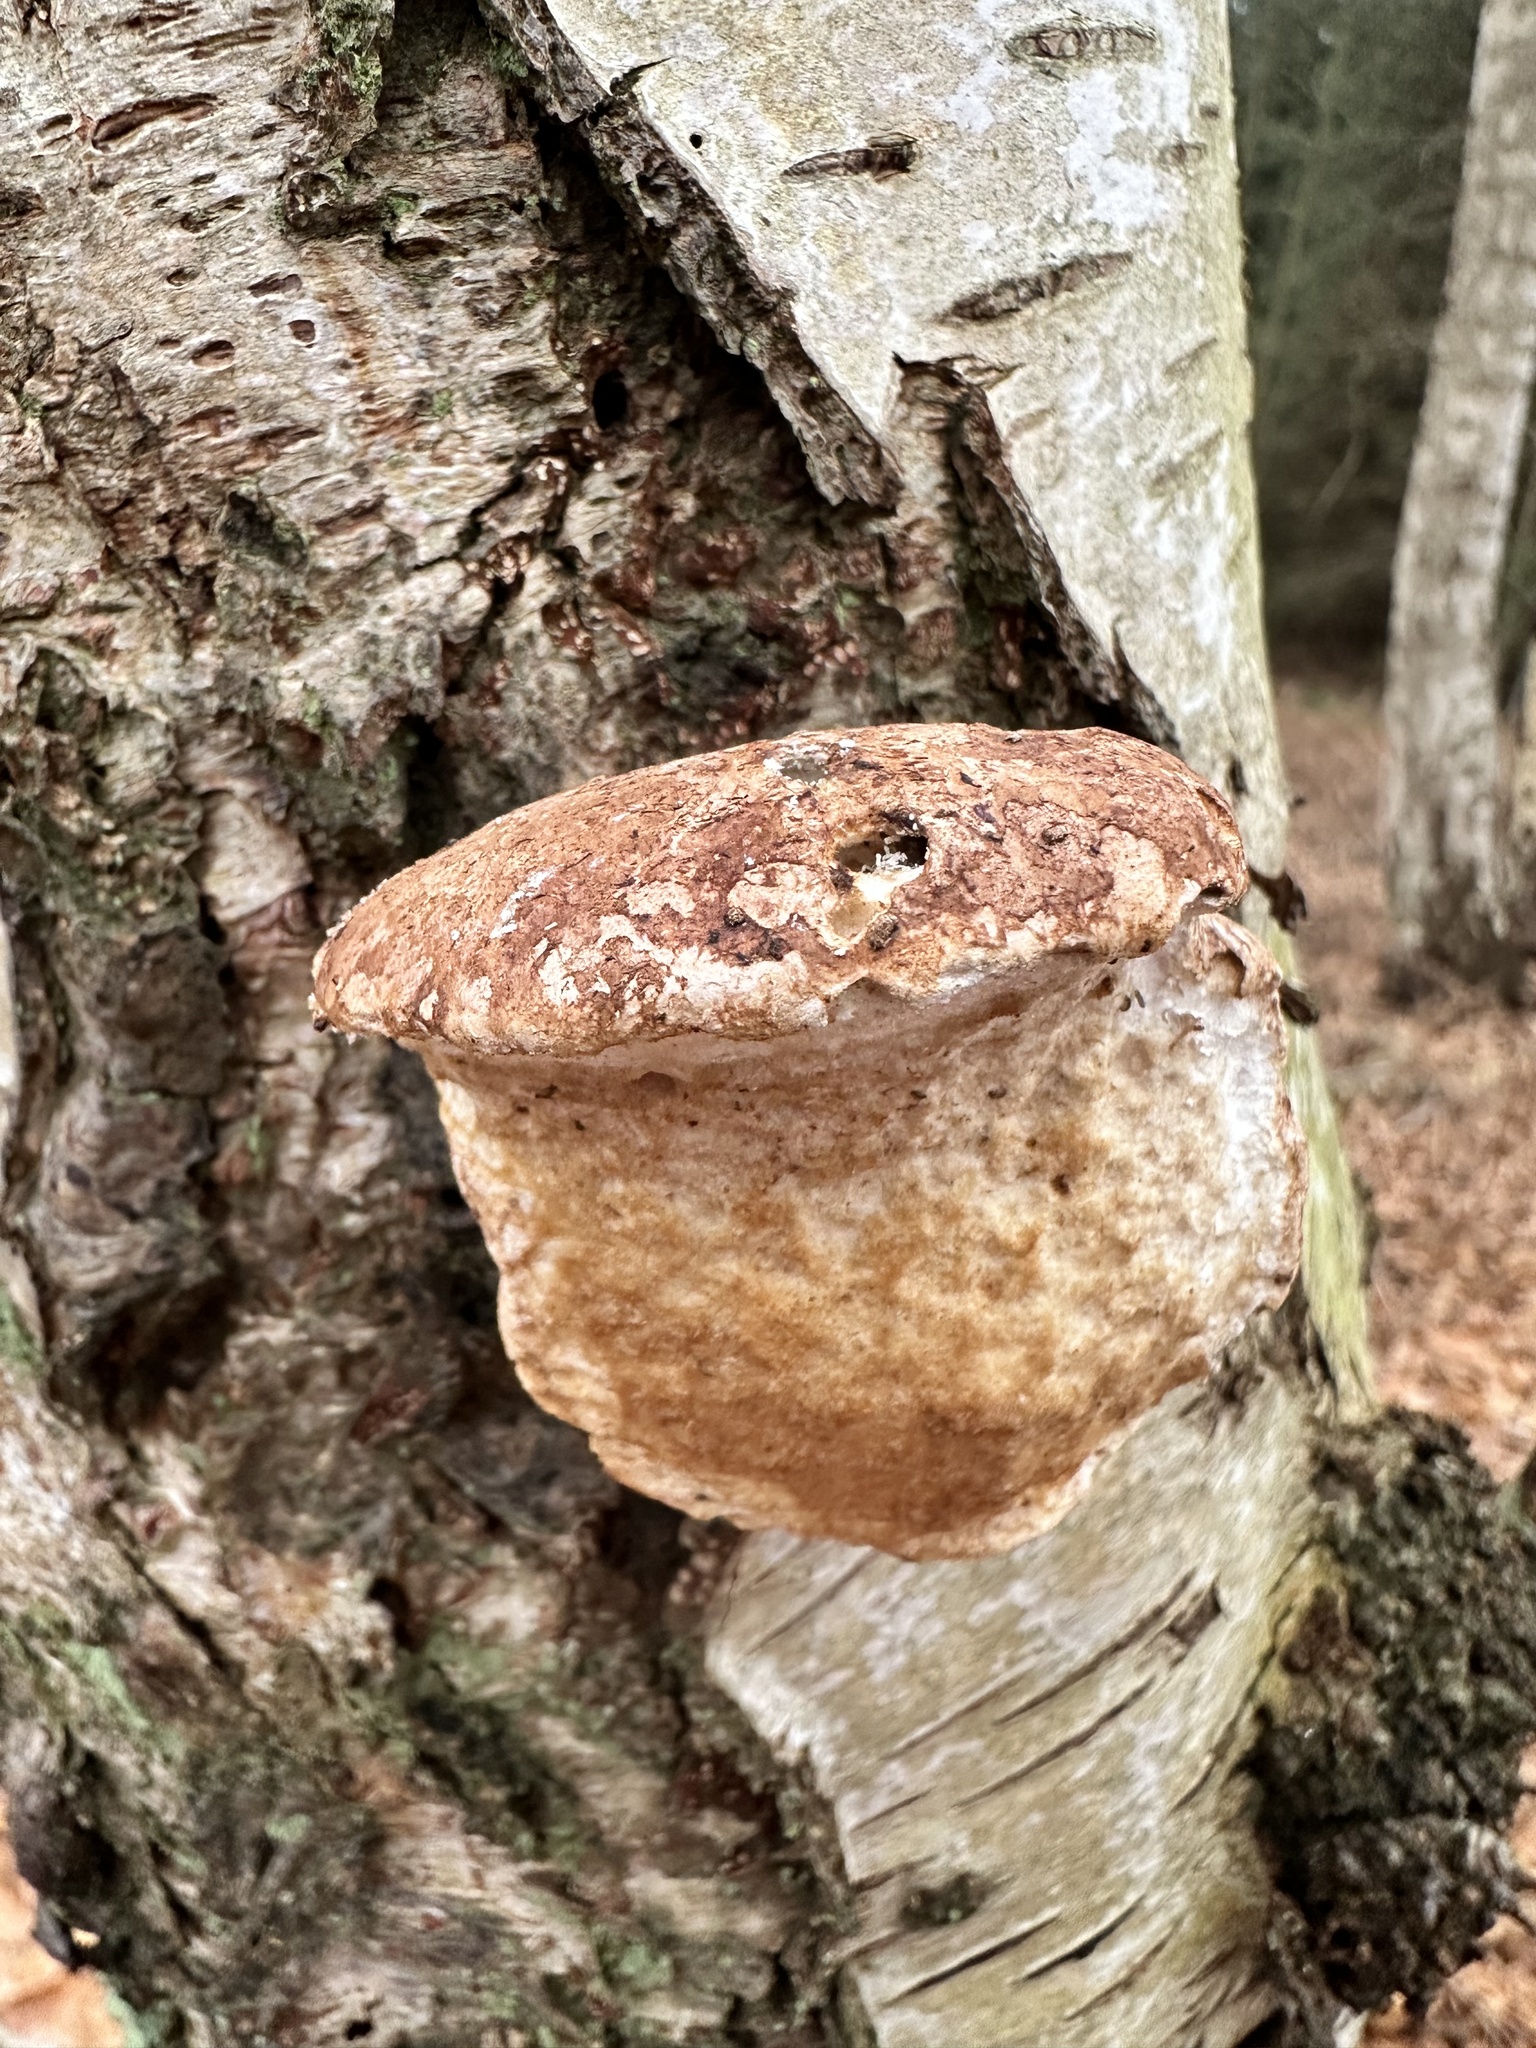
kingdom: Fungi
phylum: Basidiomycota
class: Agaricomycetes
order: Polyporales
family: Fomitopsidaceae
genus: Fomitopsis
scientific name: Fomitopsis betulina
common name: Birch polypore
